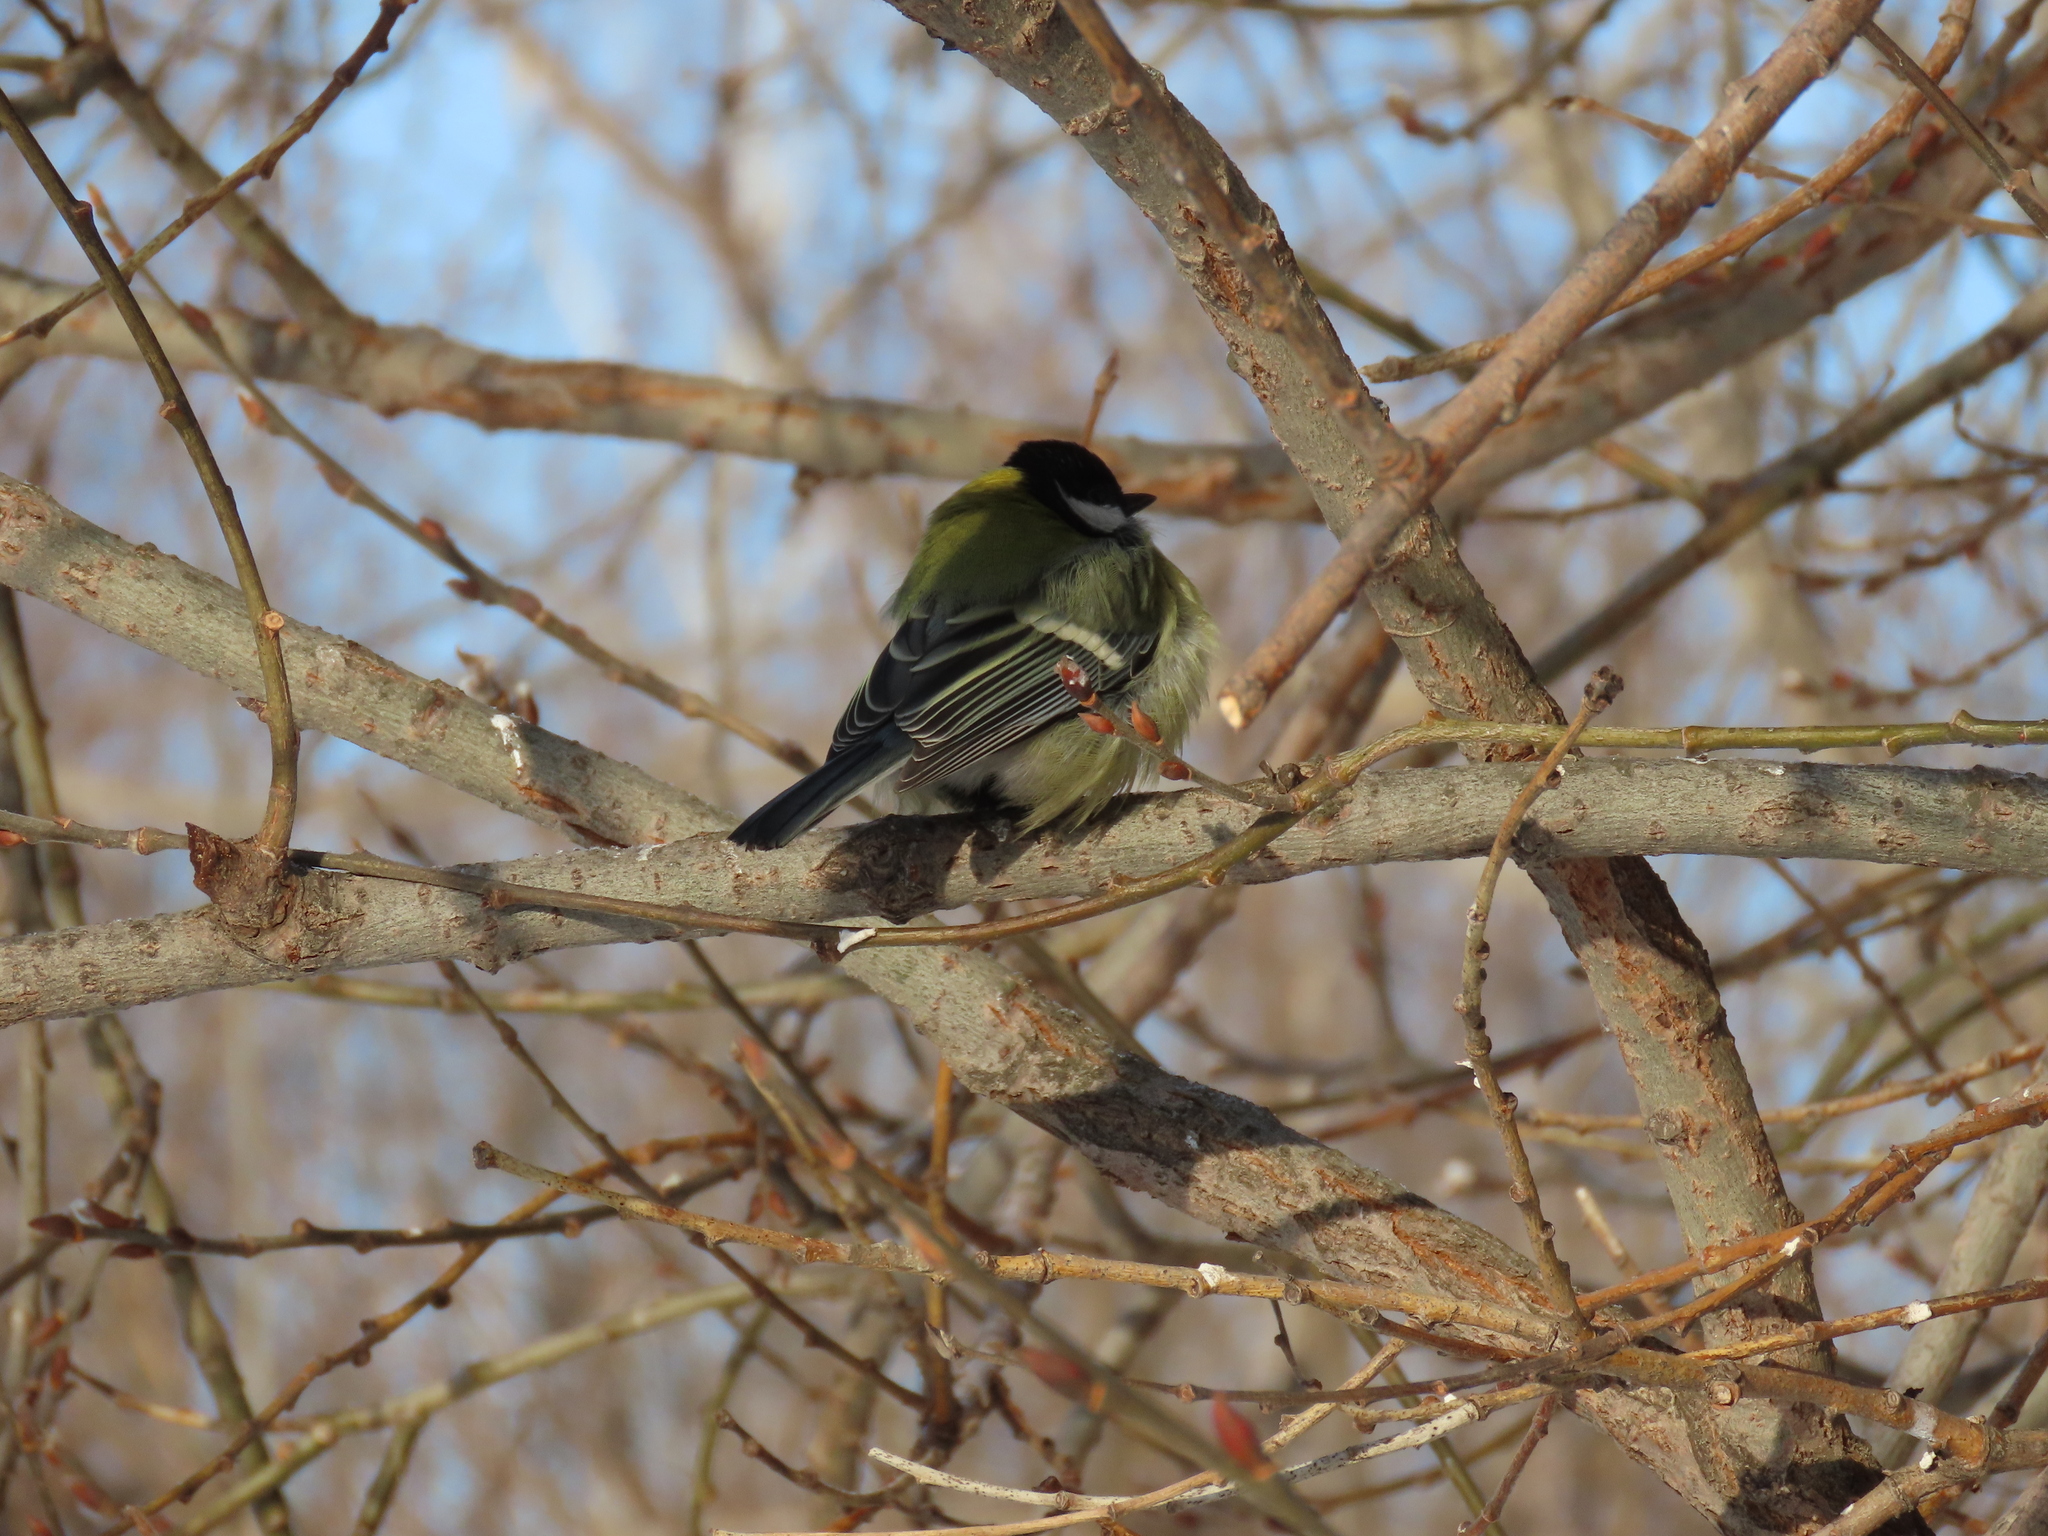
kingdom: Animalia
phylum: Chordata
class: Aves
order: Passeriformes
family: Paridae
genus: Parus
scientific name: Parus major
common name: Great tit
